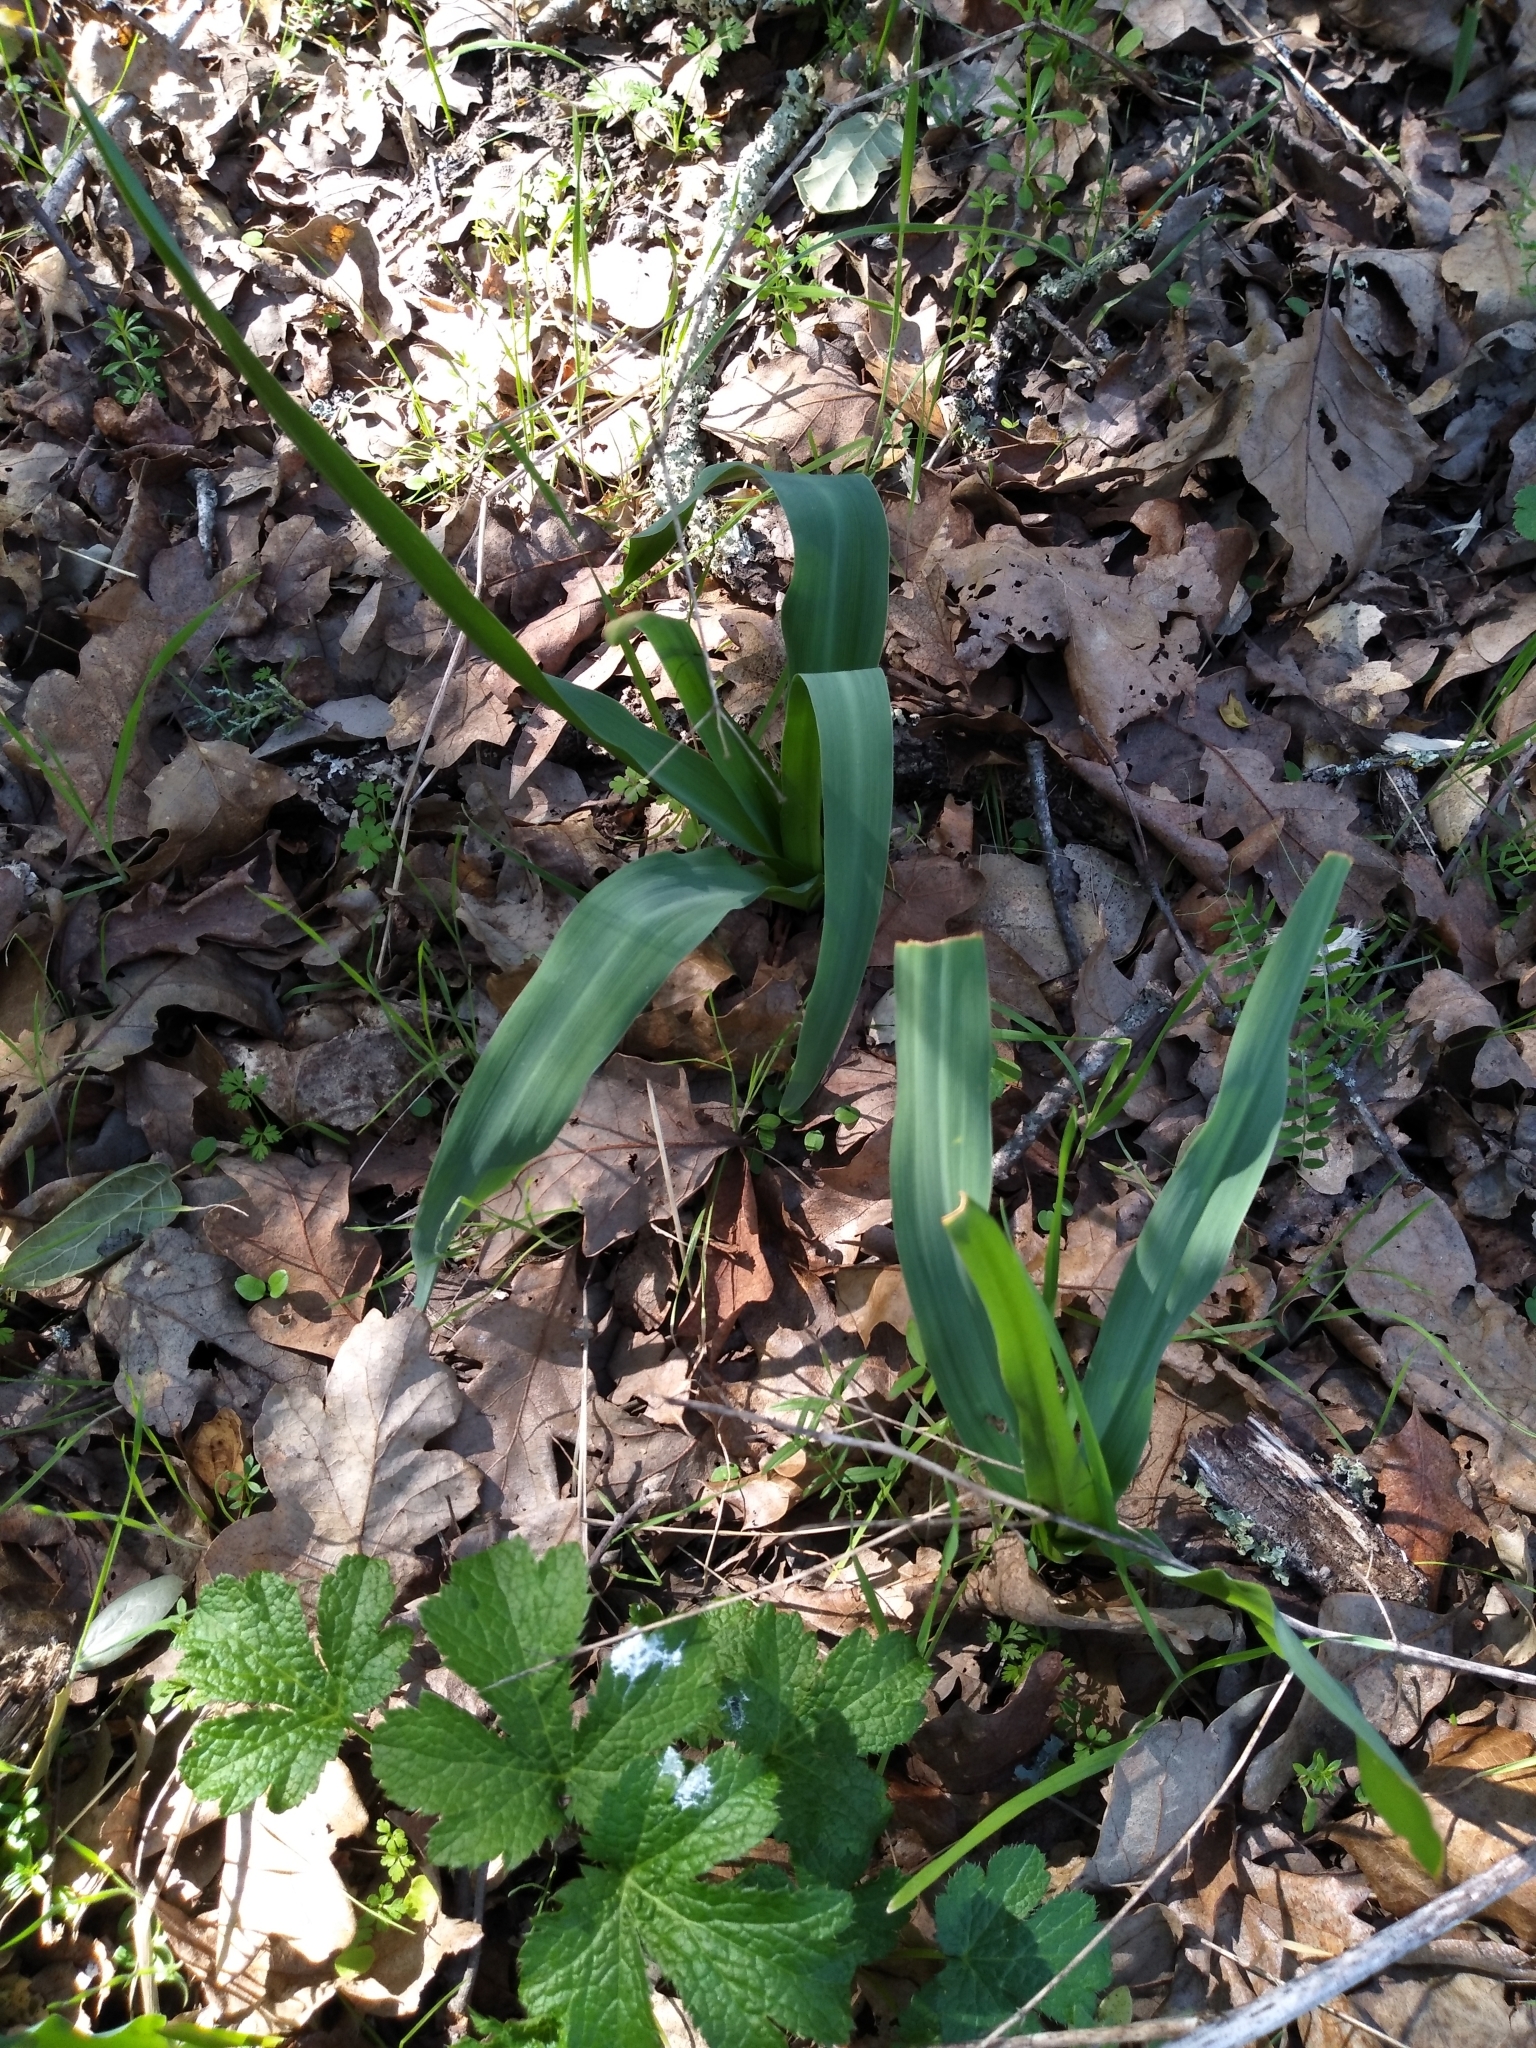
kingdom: Plantae
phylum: Tracheophyta
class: Liliopsida
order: Asparagales
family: Asparagaceae
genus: Chlorogalum
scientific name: Chlorogalum pomeridianum
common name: Amole
